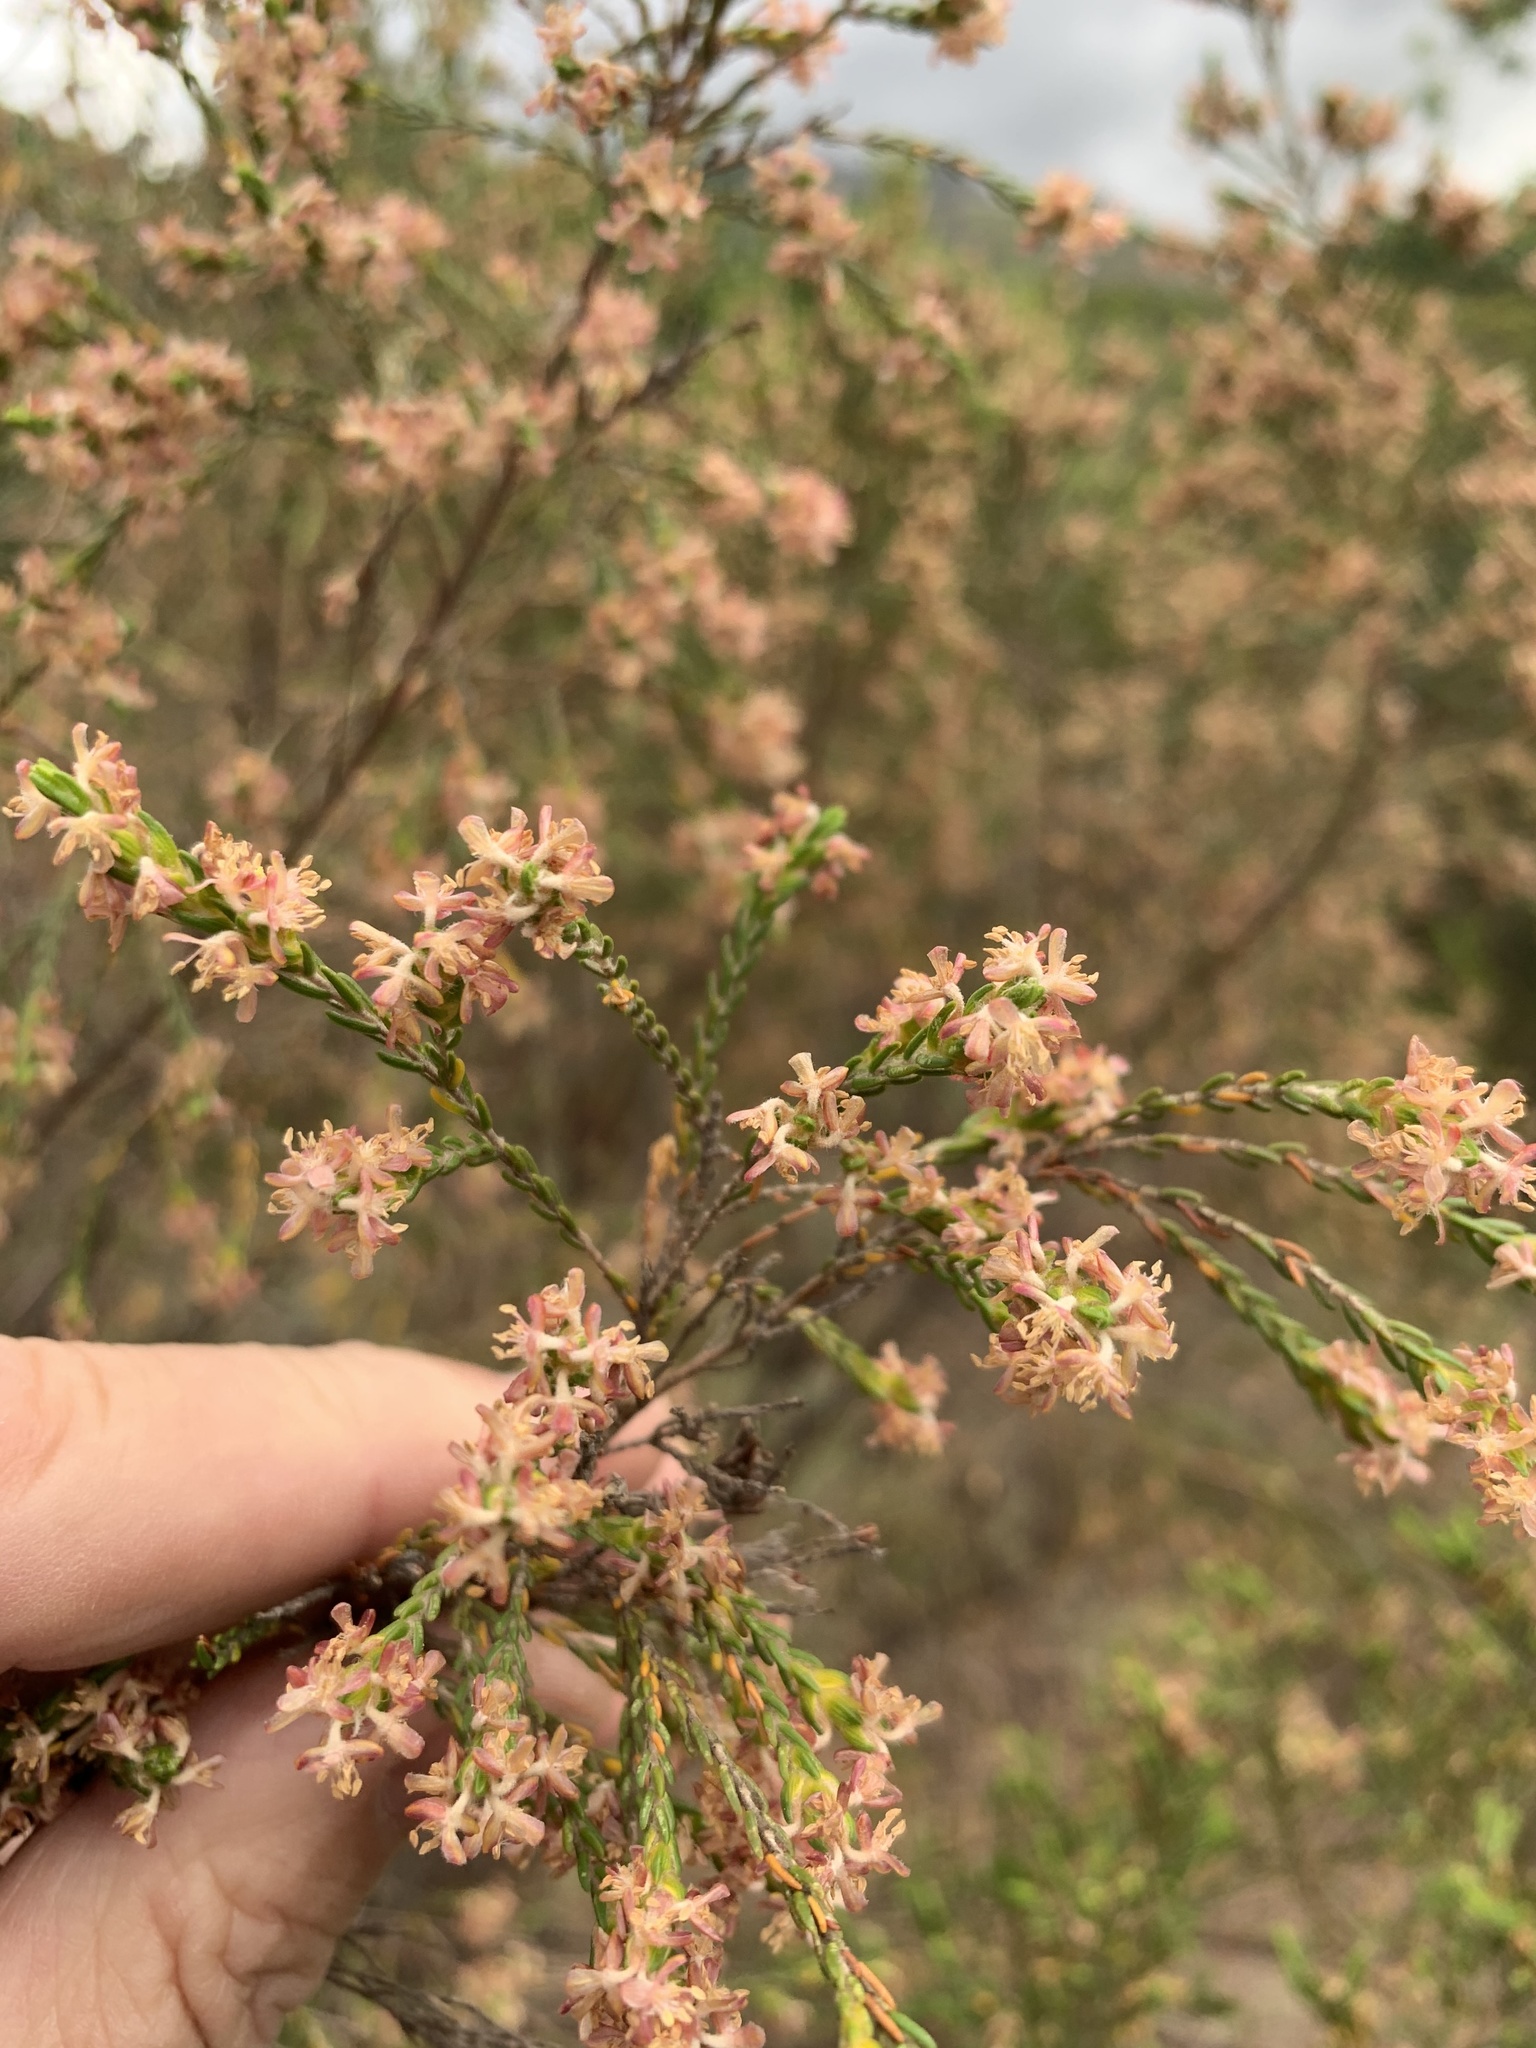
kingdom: Plantae
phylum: Tracheophyta
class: Magnoliopsida
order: Malvales
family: Thymelaeaceae
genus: Passerina
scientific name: Passerina corymbosa
